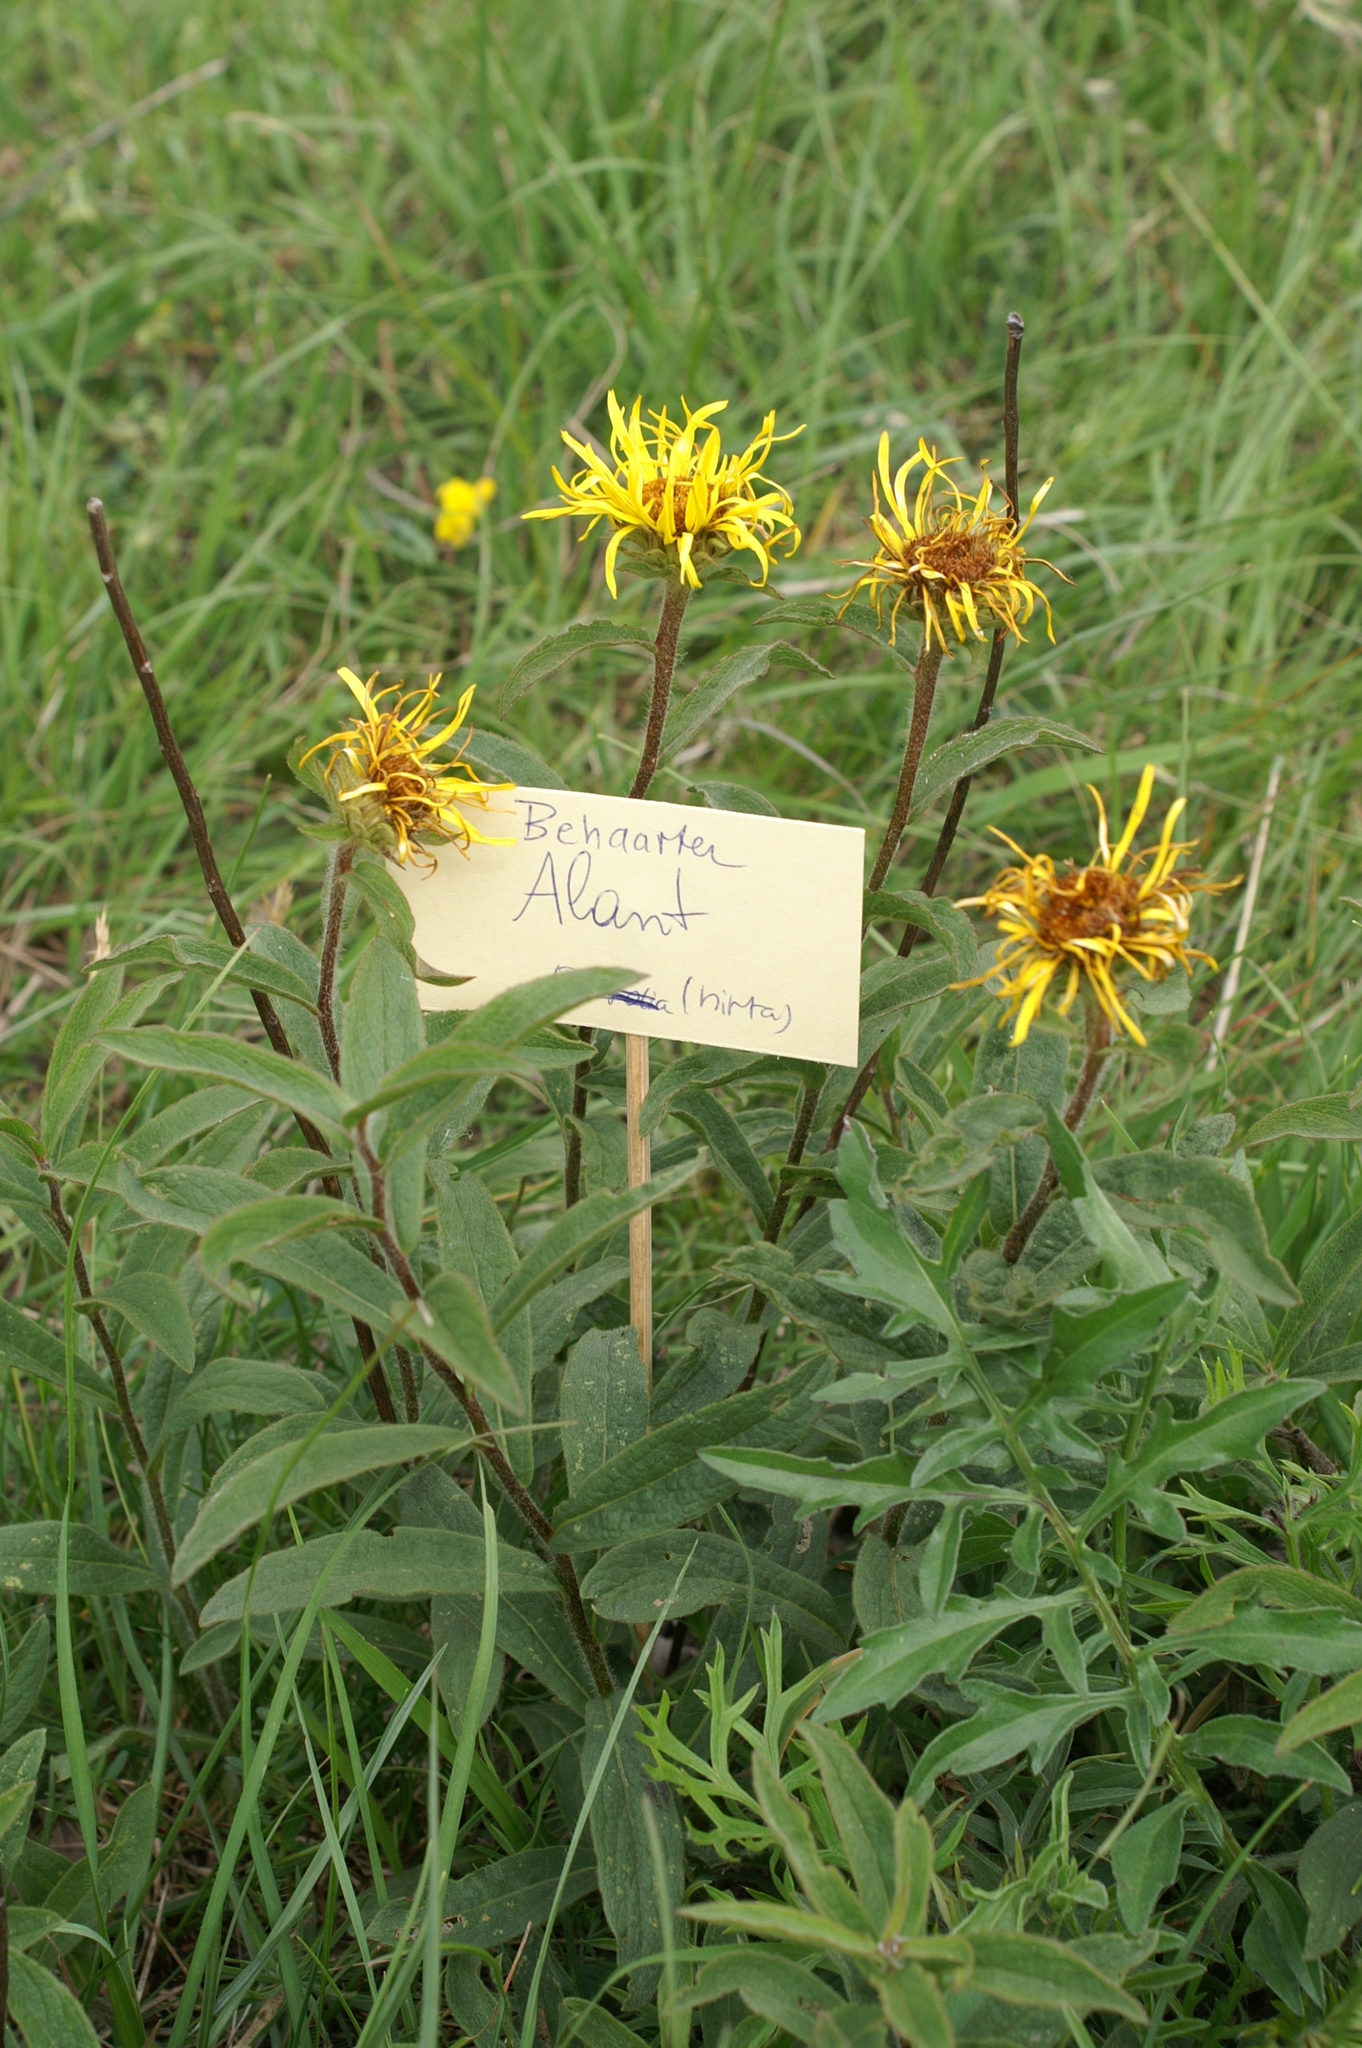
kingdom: Plantae
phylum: Tracheophyta
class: Magnoliopsida
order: Asterales
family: Asteraceae
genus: Pentanema
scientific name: Pentanema hirtum
